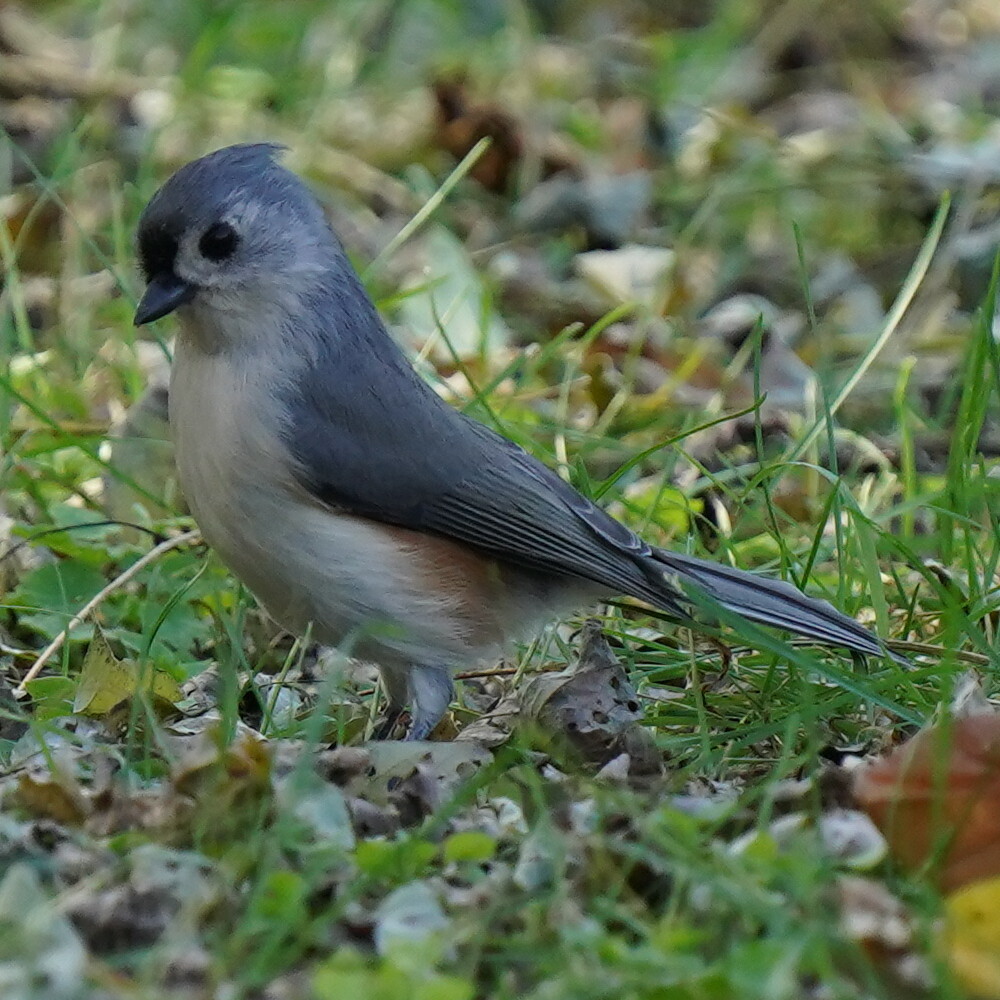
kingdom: Animalia
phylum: Chordata
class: Aves
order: Passeriformes
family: Paridae
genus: Baeolophus
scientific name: Baeolophus bicolor
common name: Tufted titmouse
